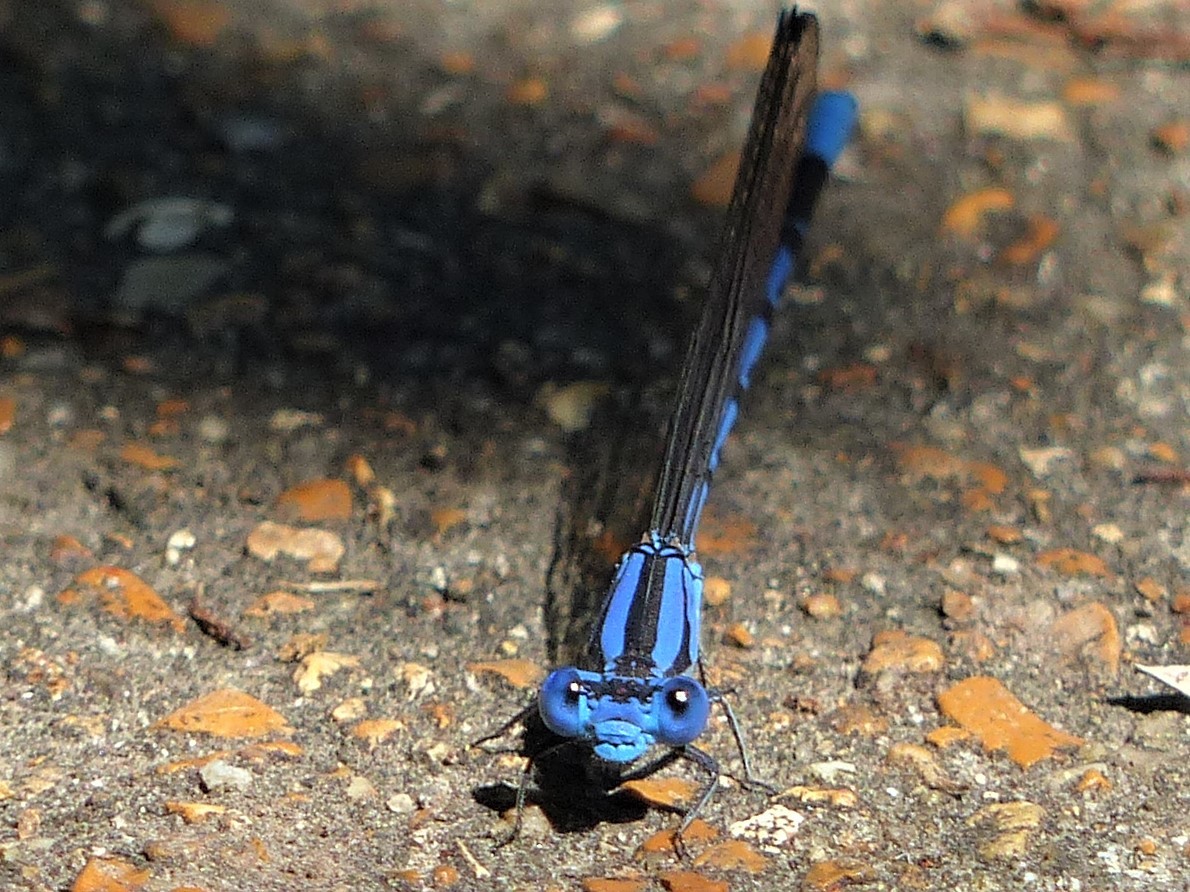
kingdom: Animalia
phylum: Arthropoda
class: Insecta
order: Odonata
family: Coenagrionidae
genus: Argia
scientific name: Argia funebris
